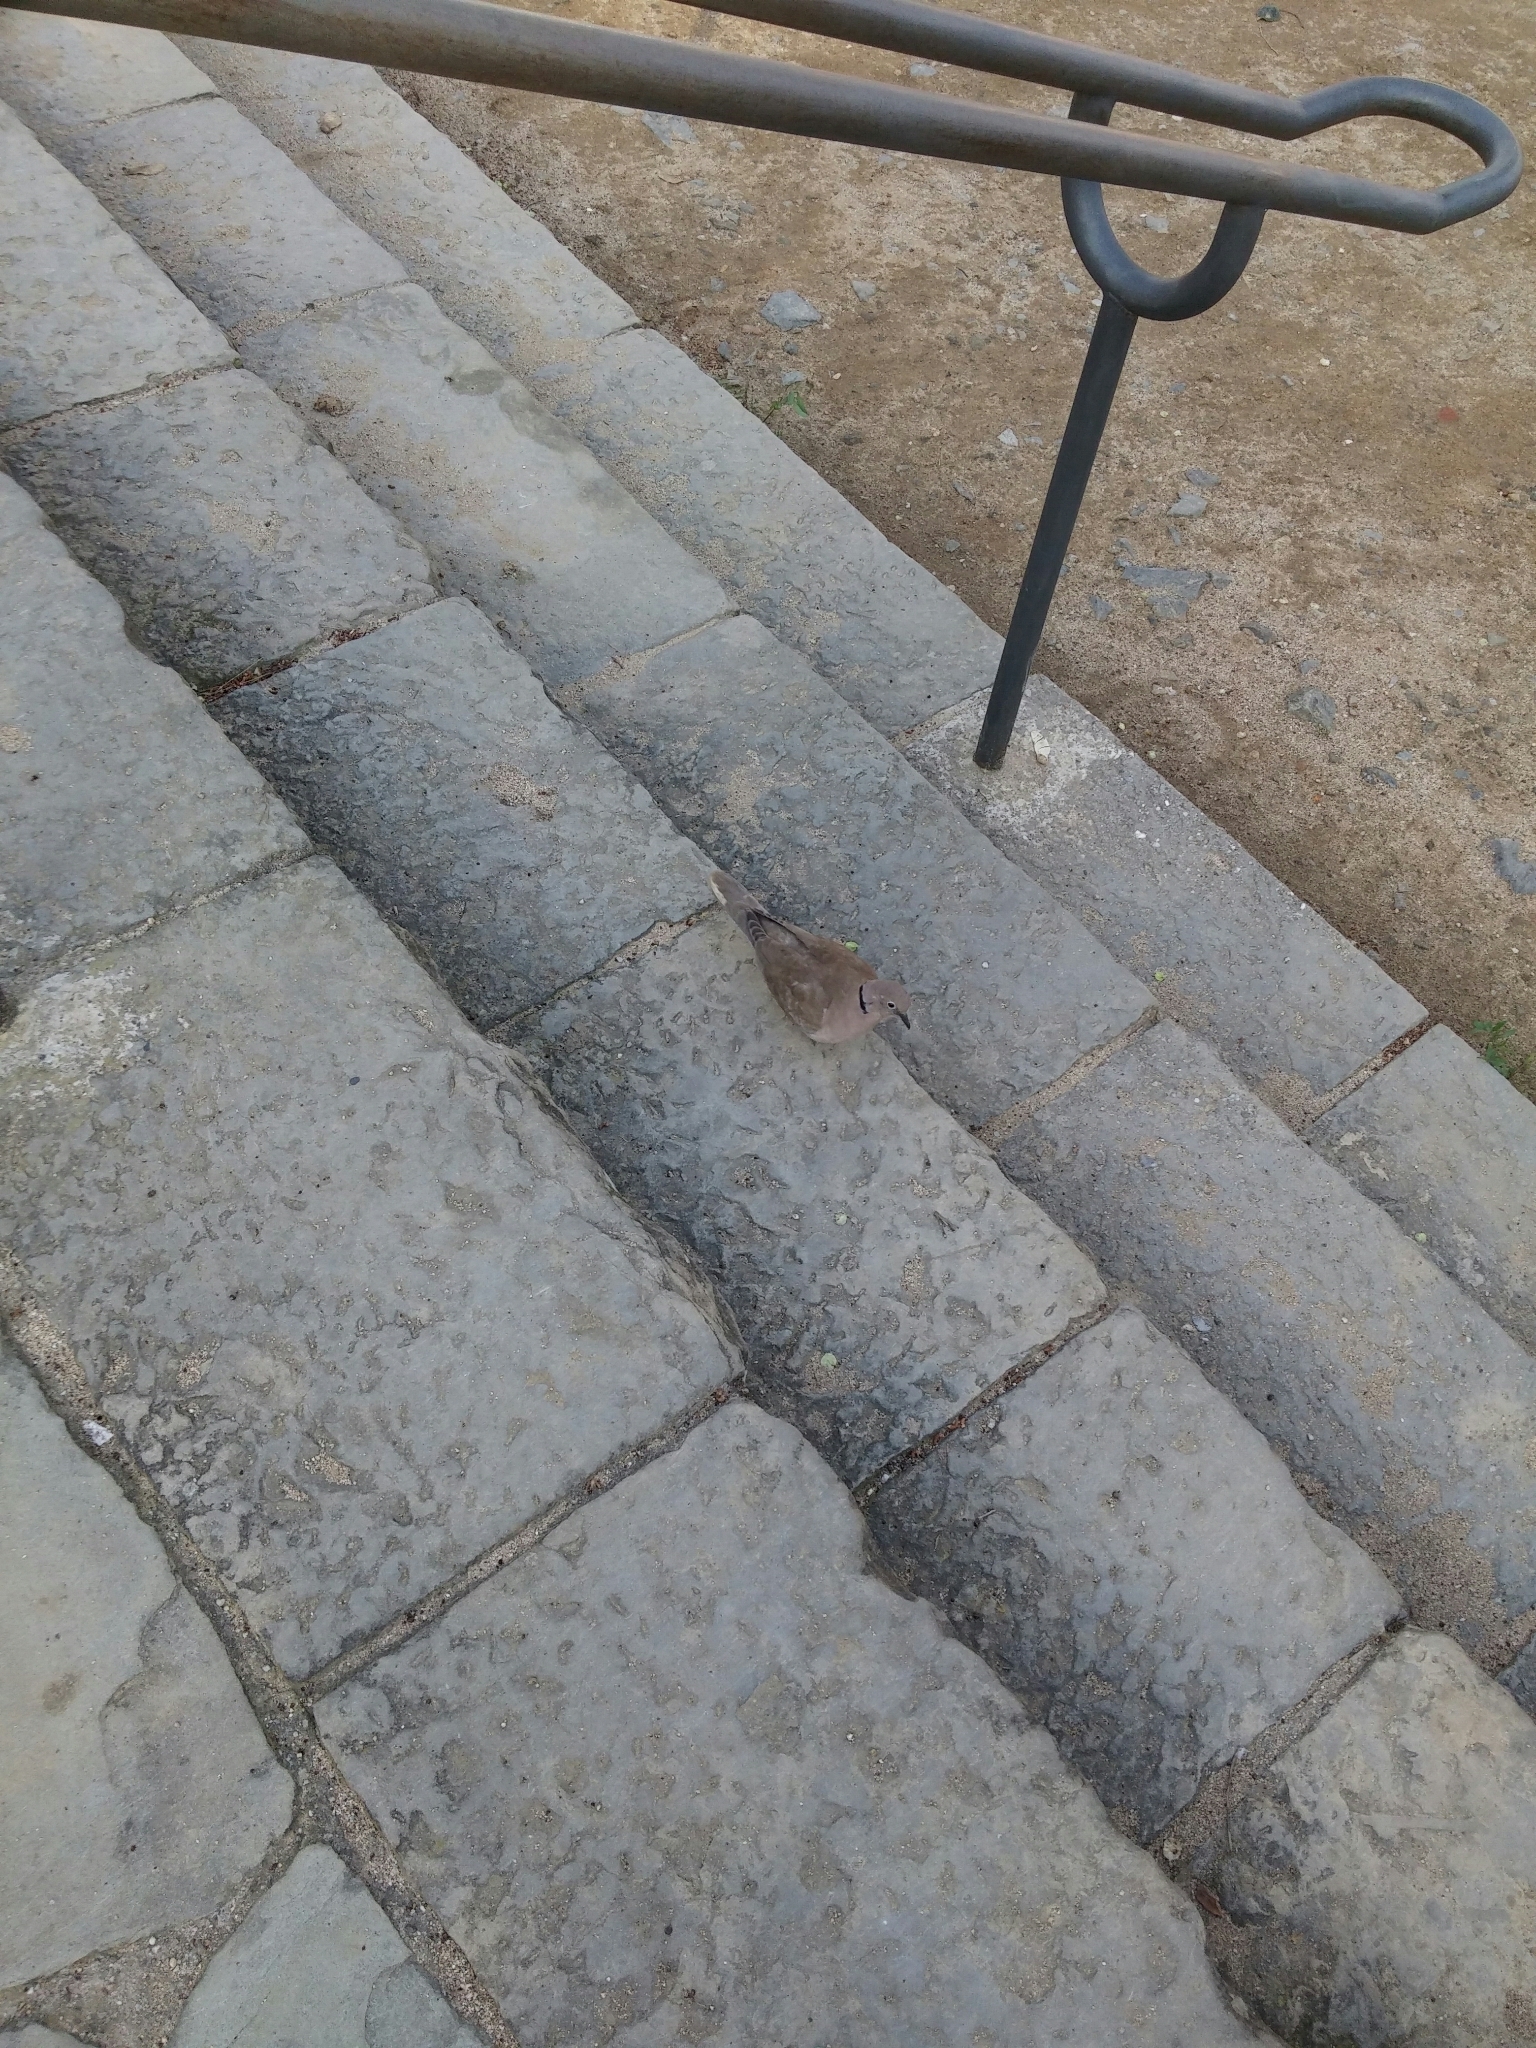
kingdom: Animalia
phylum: Chordata
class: Aves
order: Columbiformes
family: Columbidae
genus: Streptopelia
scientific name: Streptopelia decaocto
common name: Eurasian collared dove
